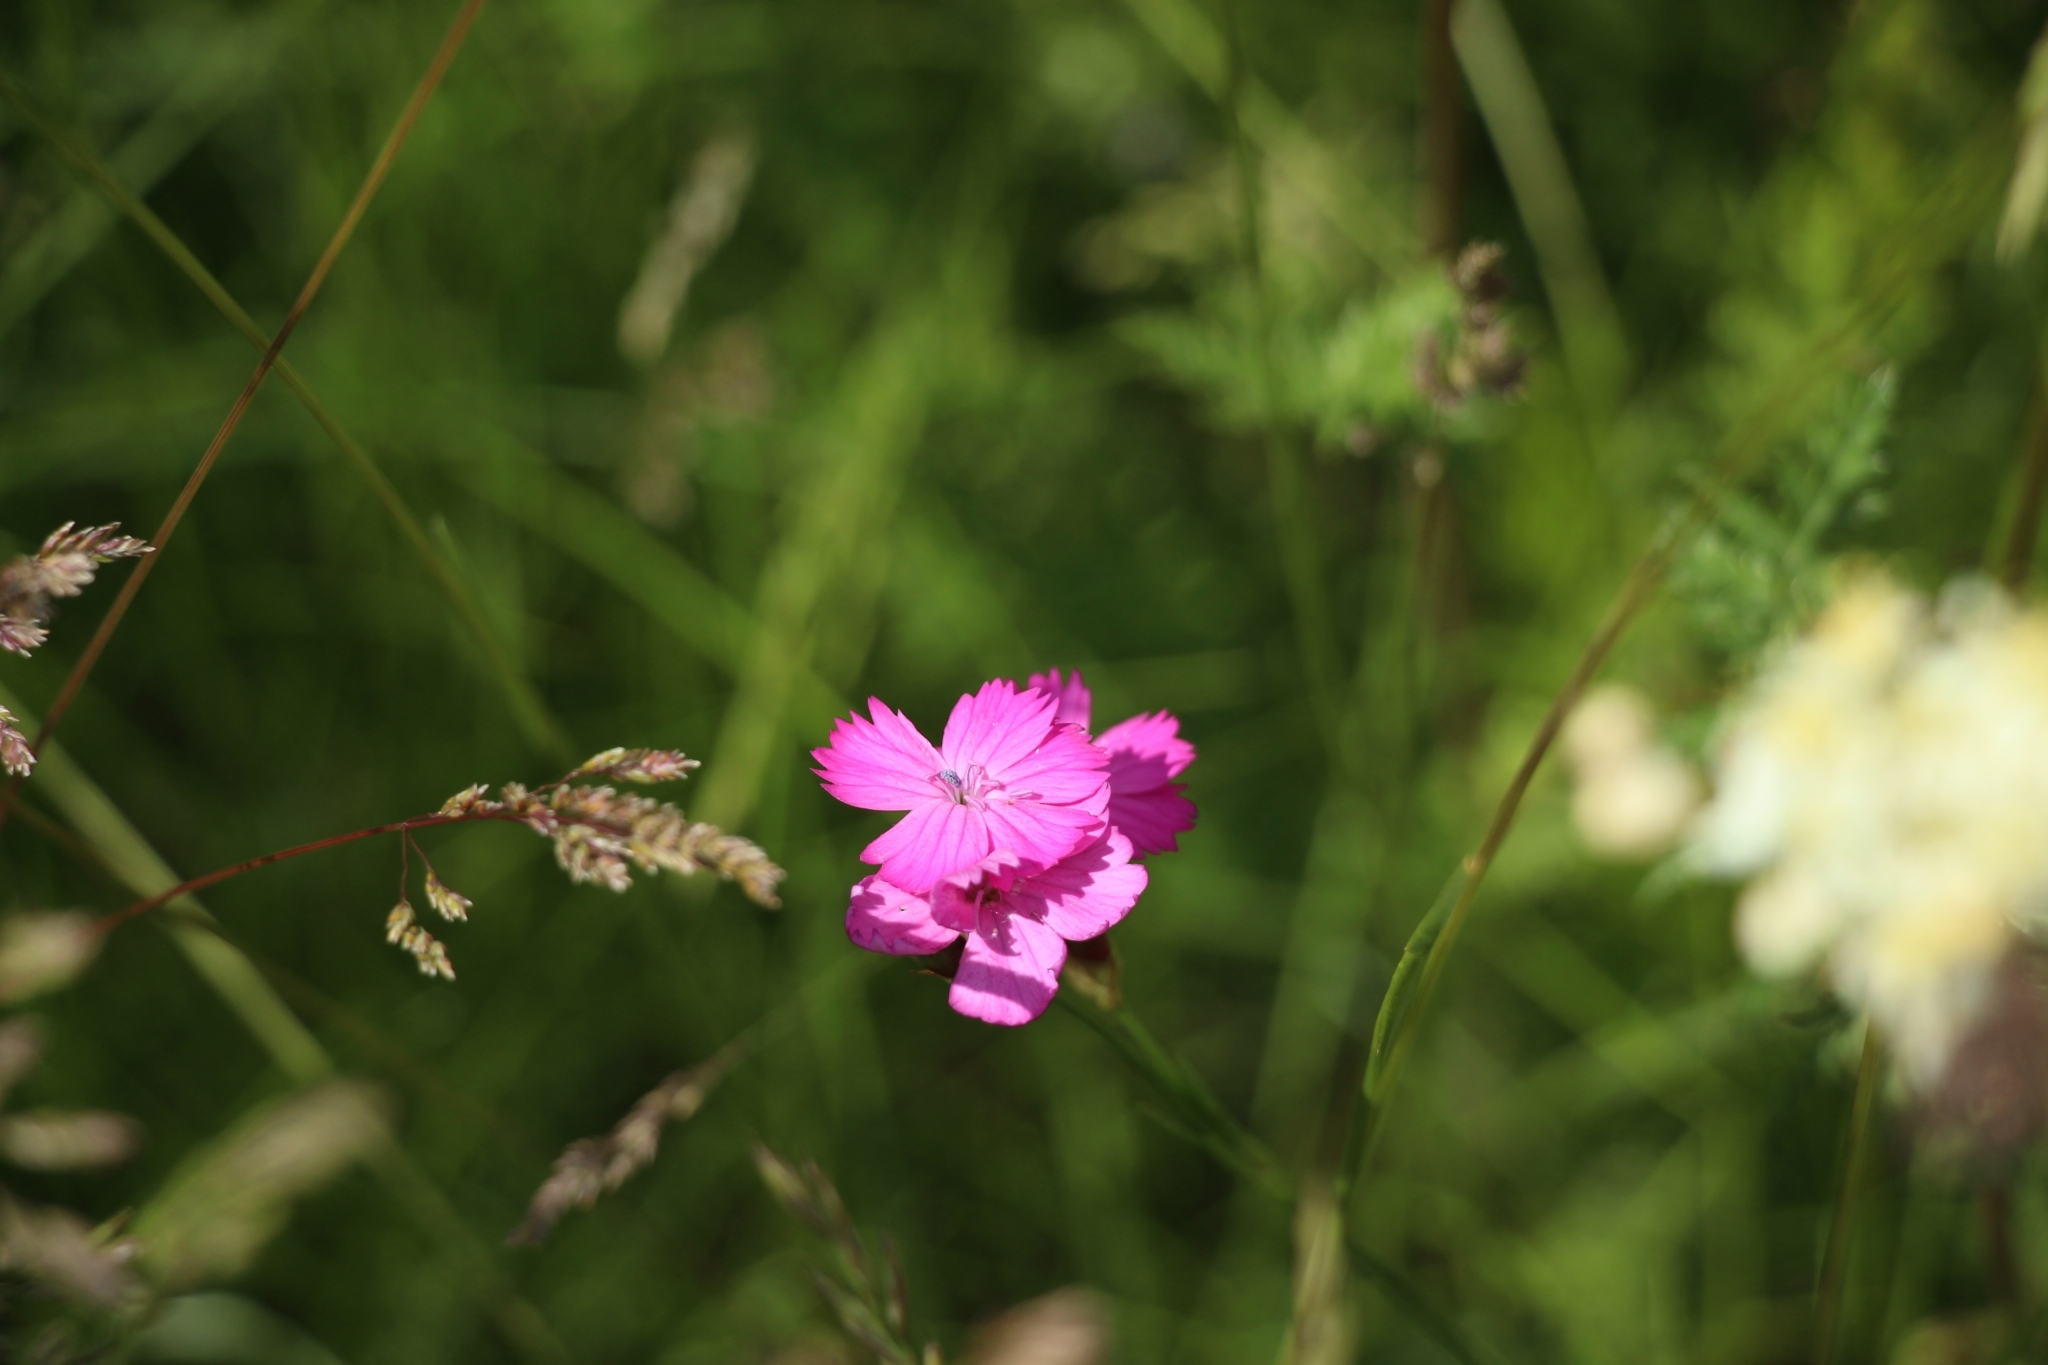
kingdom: Plantae
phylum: Tracheophyta
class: Magnoliopsida
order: Caryophyllales
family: Caryophyllaceae
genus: Dianthus
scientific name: Dianthus borbasii
